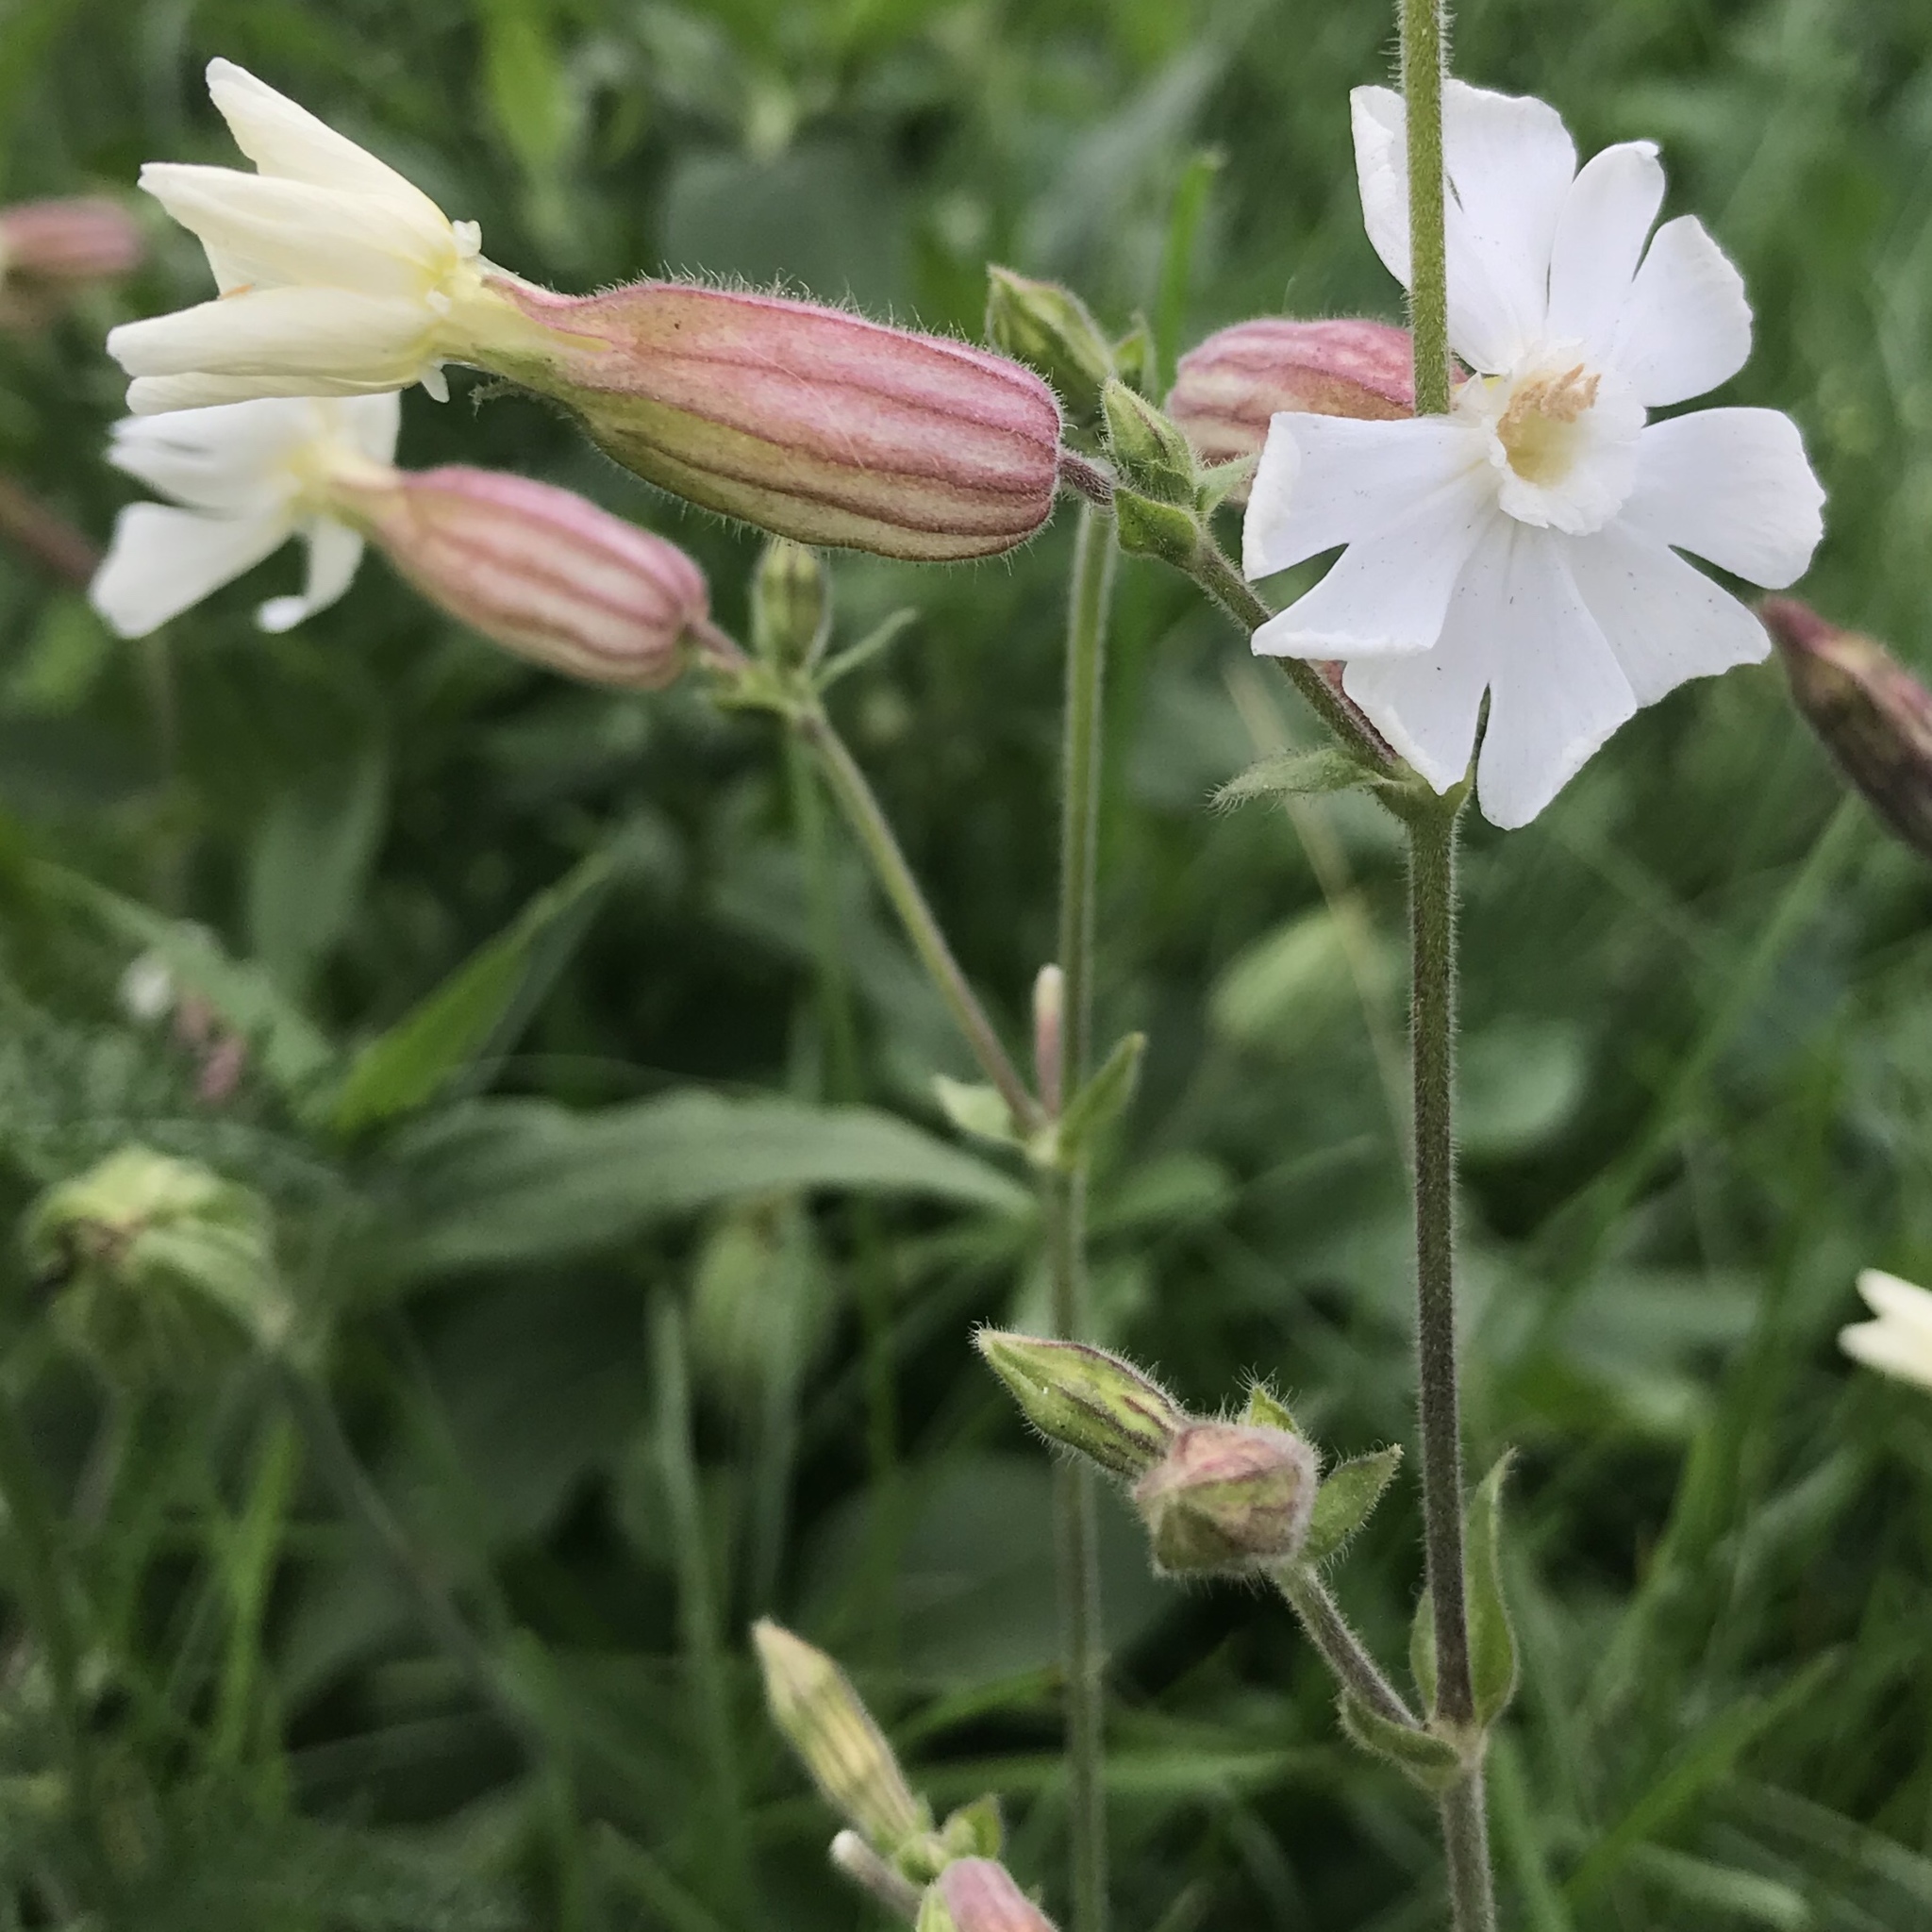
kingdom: Plantae
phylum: Tracheophyta
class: Magnoliopsida
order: Caryophyllales
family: Caryophyllaceae
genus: Silene
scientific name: Silene latifolia
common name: White campion
